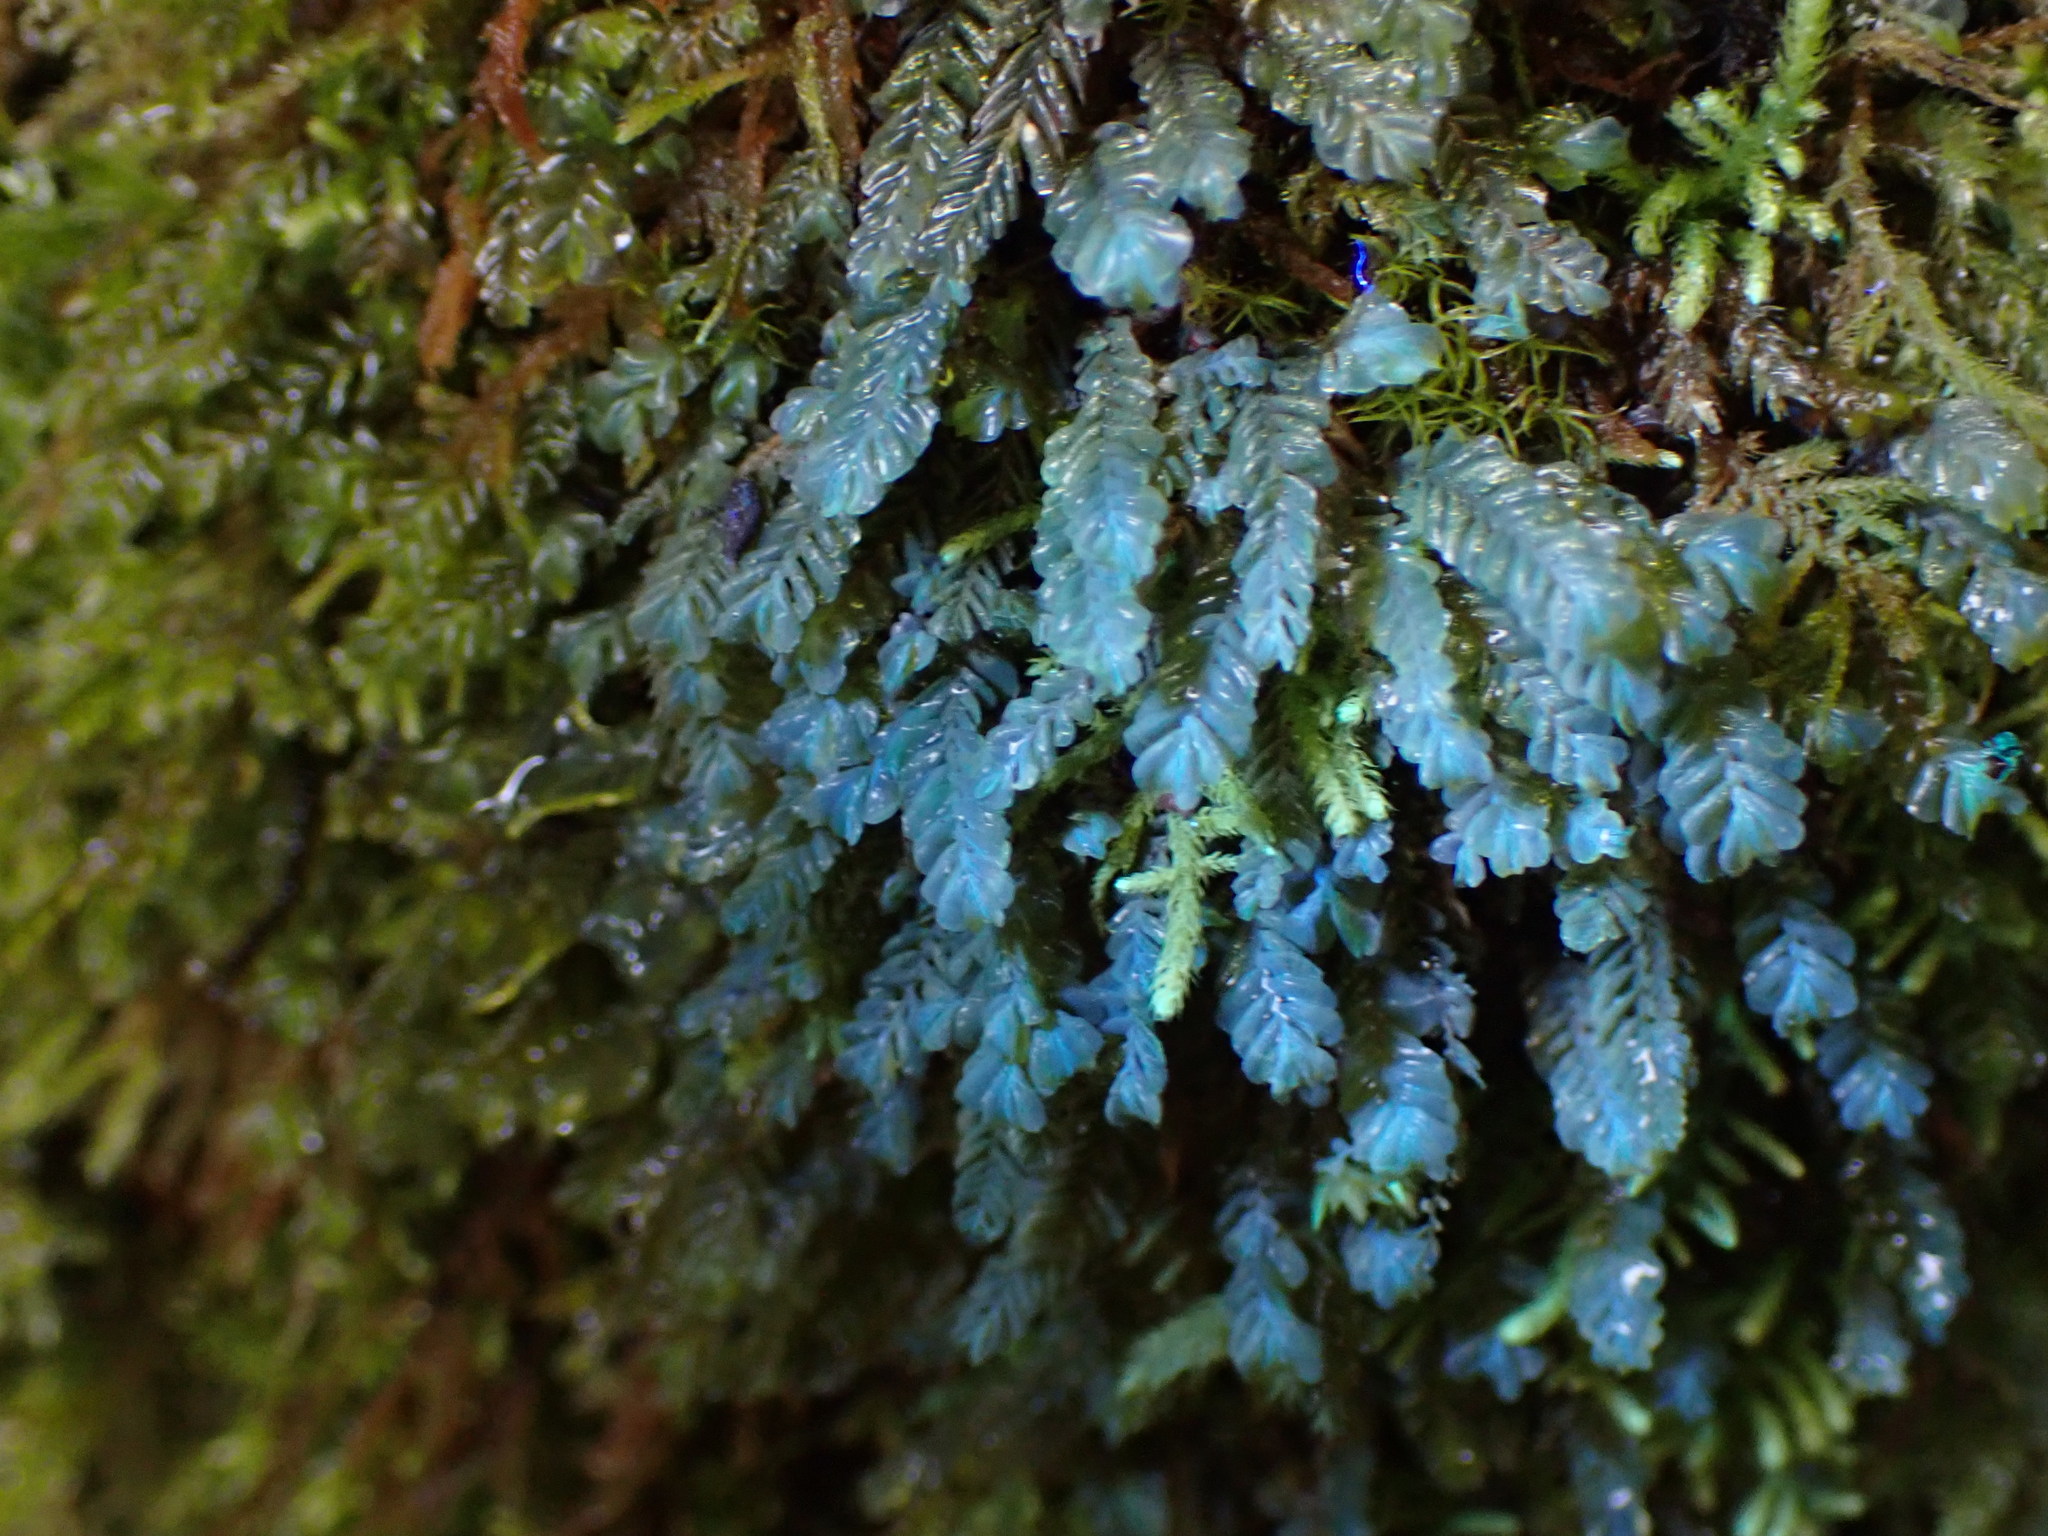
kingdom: Plantae
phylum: Marchantiophyta
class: Jungermanniopsida
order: Jungermanniales
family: Plagiochilaceae
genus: Plagiochila
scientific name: Plagiochila porelloides
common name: Lesser featherwort
